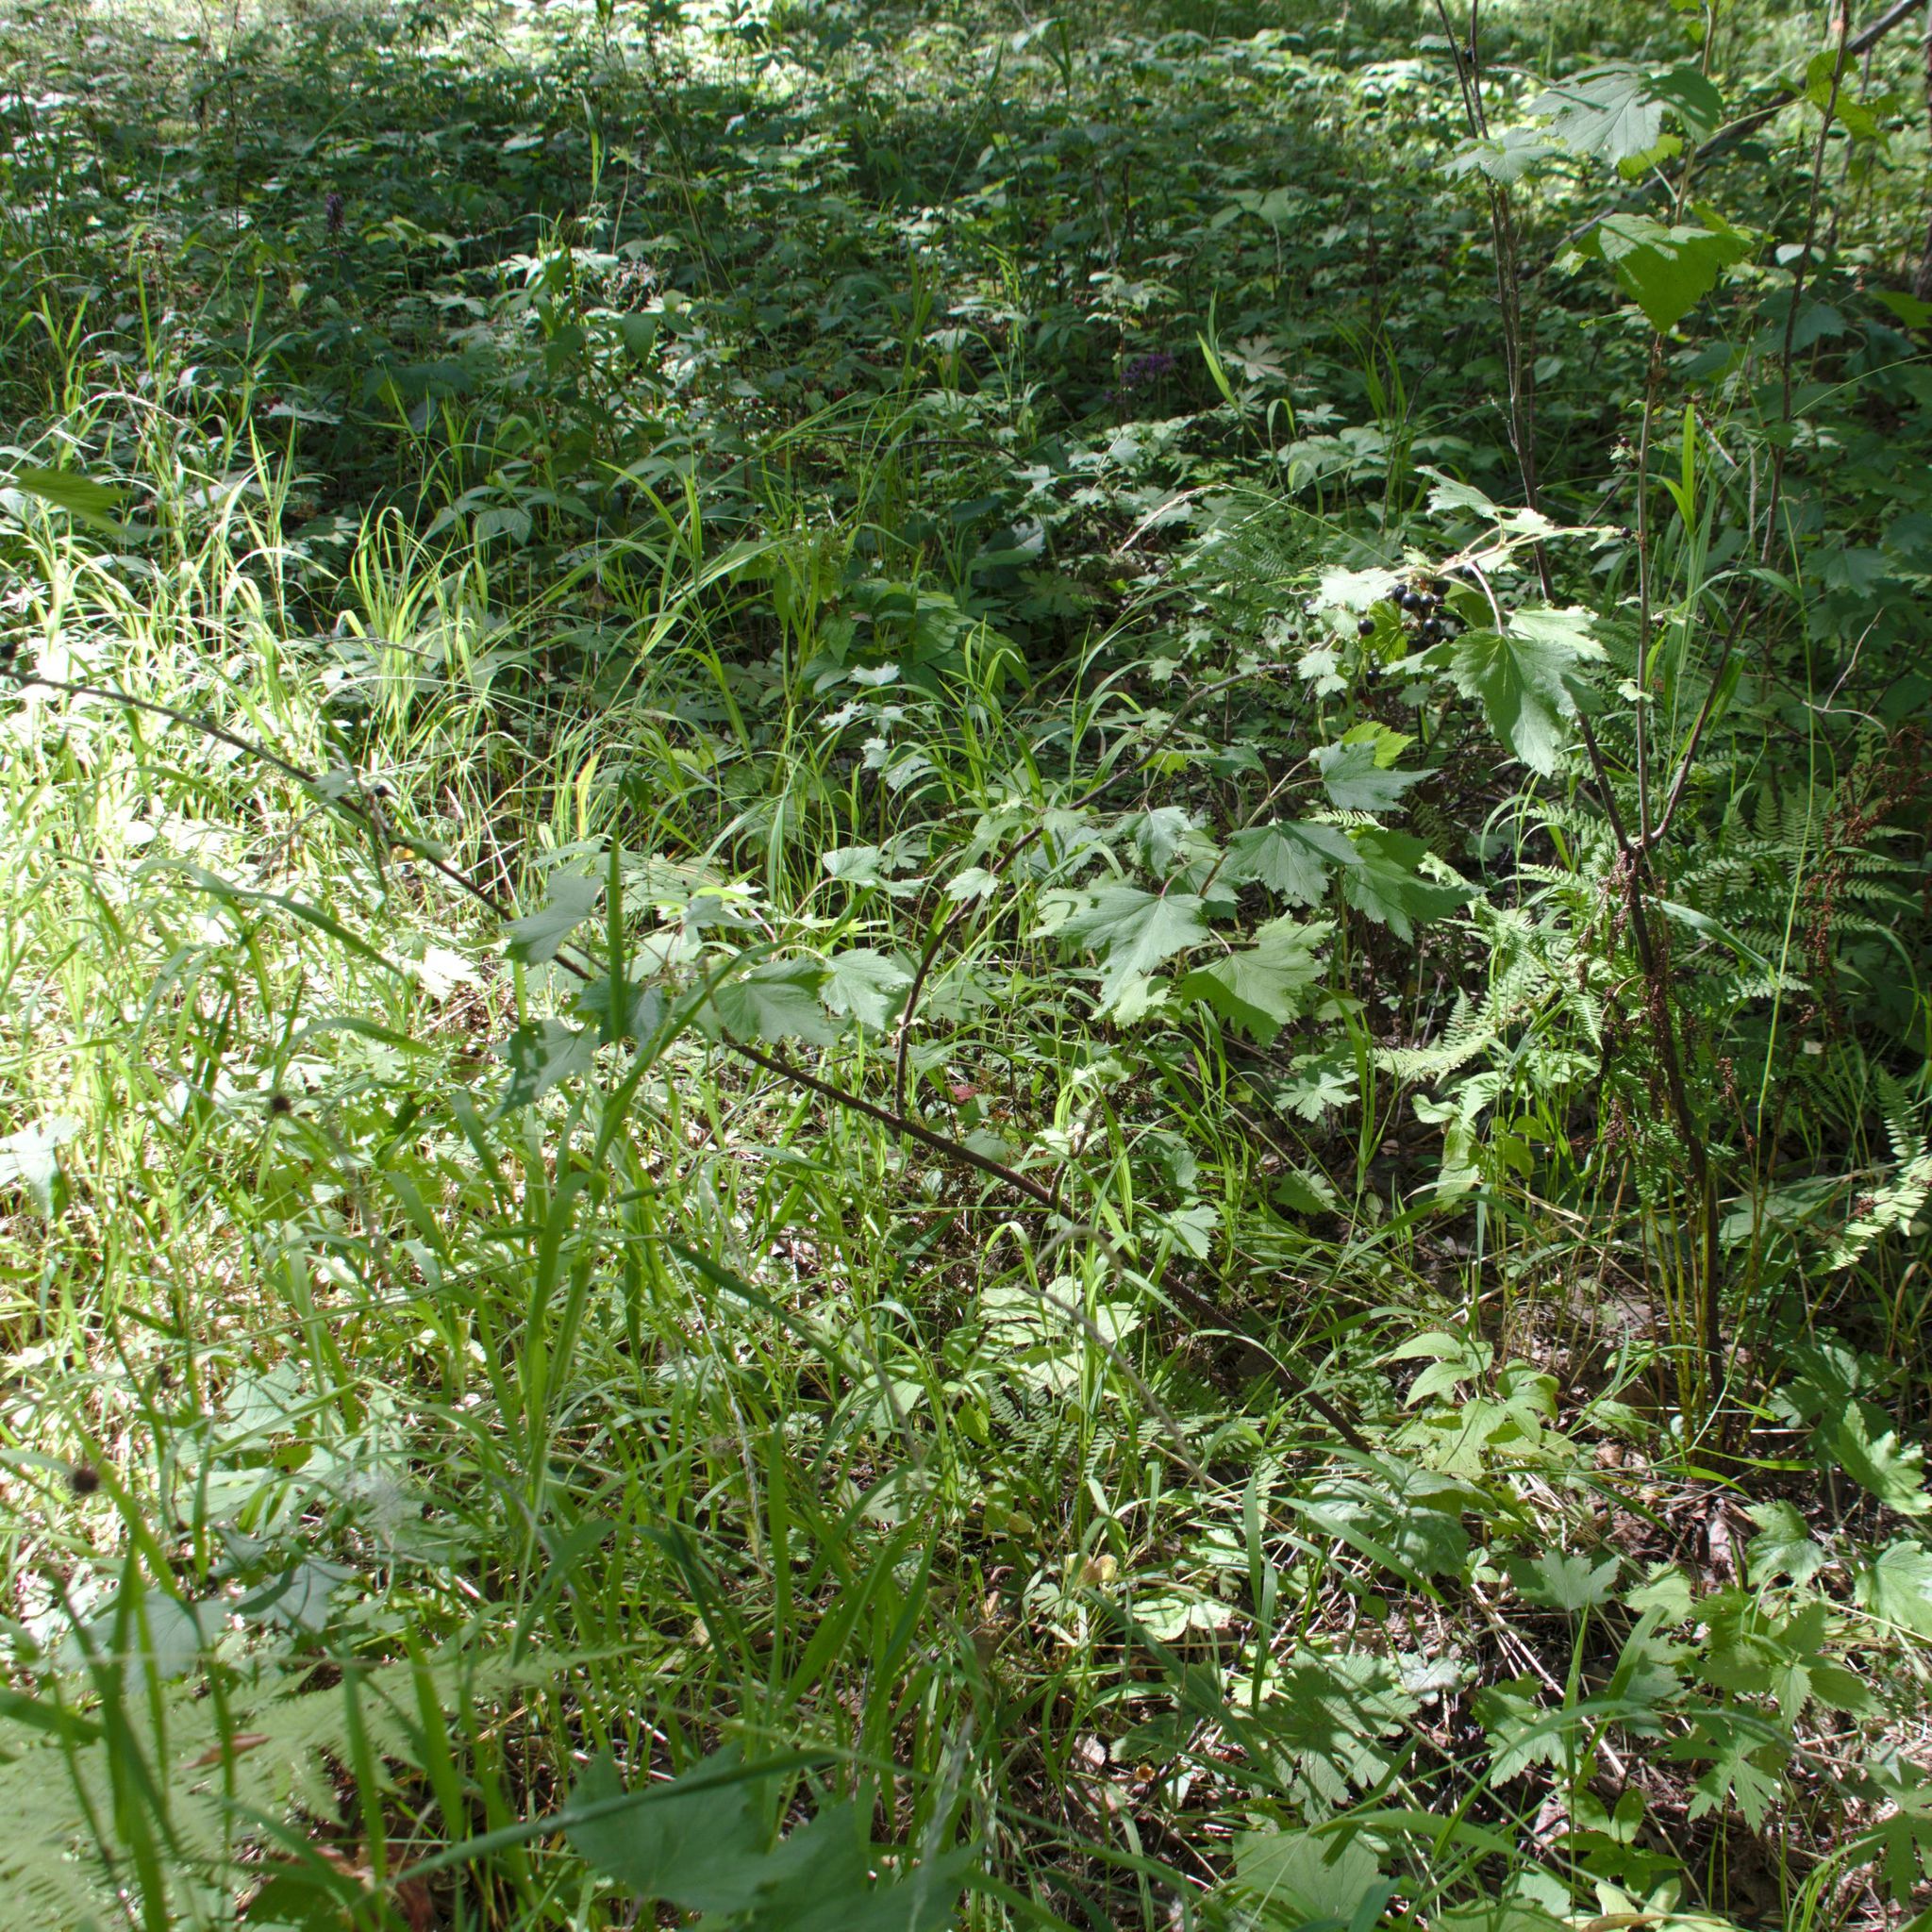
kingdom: Plantae
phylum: Tracheophyta
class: Magnoliopsida
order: Saxifragales
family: Grossulariaceae
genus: Ribes
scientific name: Ribes nigrum
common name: Black currant
